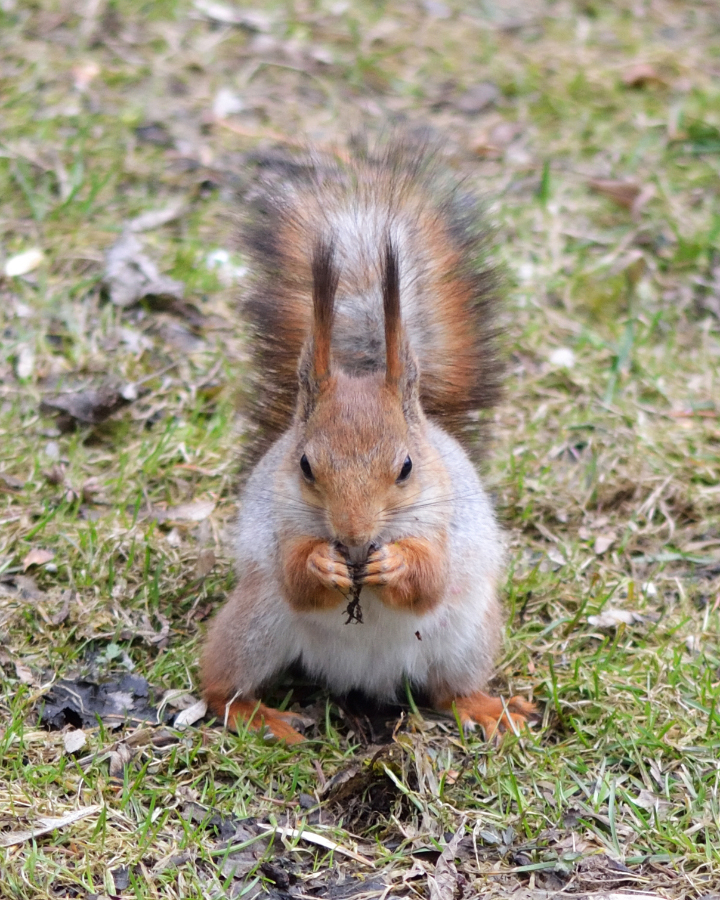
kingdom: Animalia
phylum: Chordata
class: Mammalia
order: Rodentia
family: Sciuridae
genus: Sciurus
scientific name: Sciurus vulgaris
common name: Eurasian red squirrel
